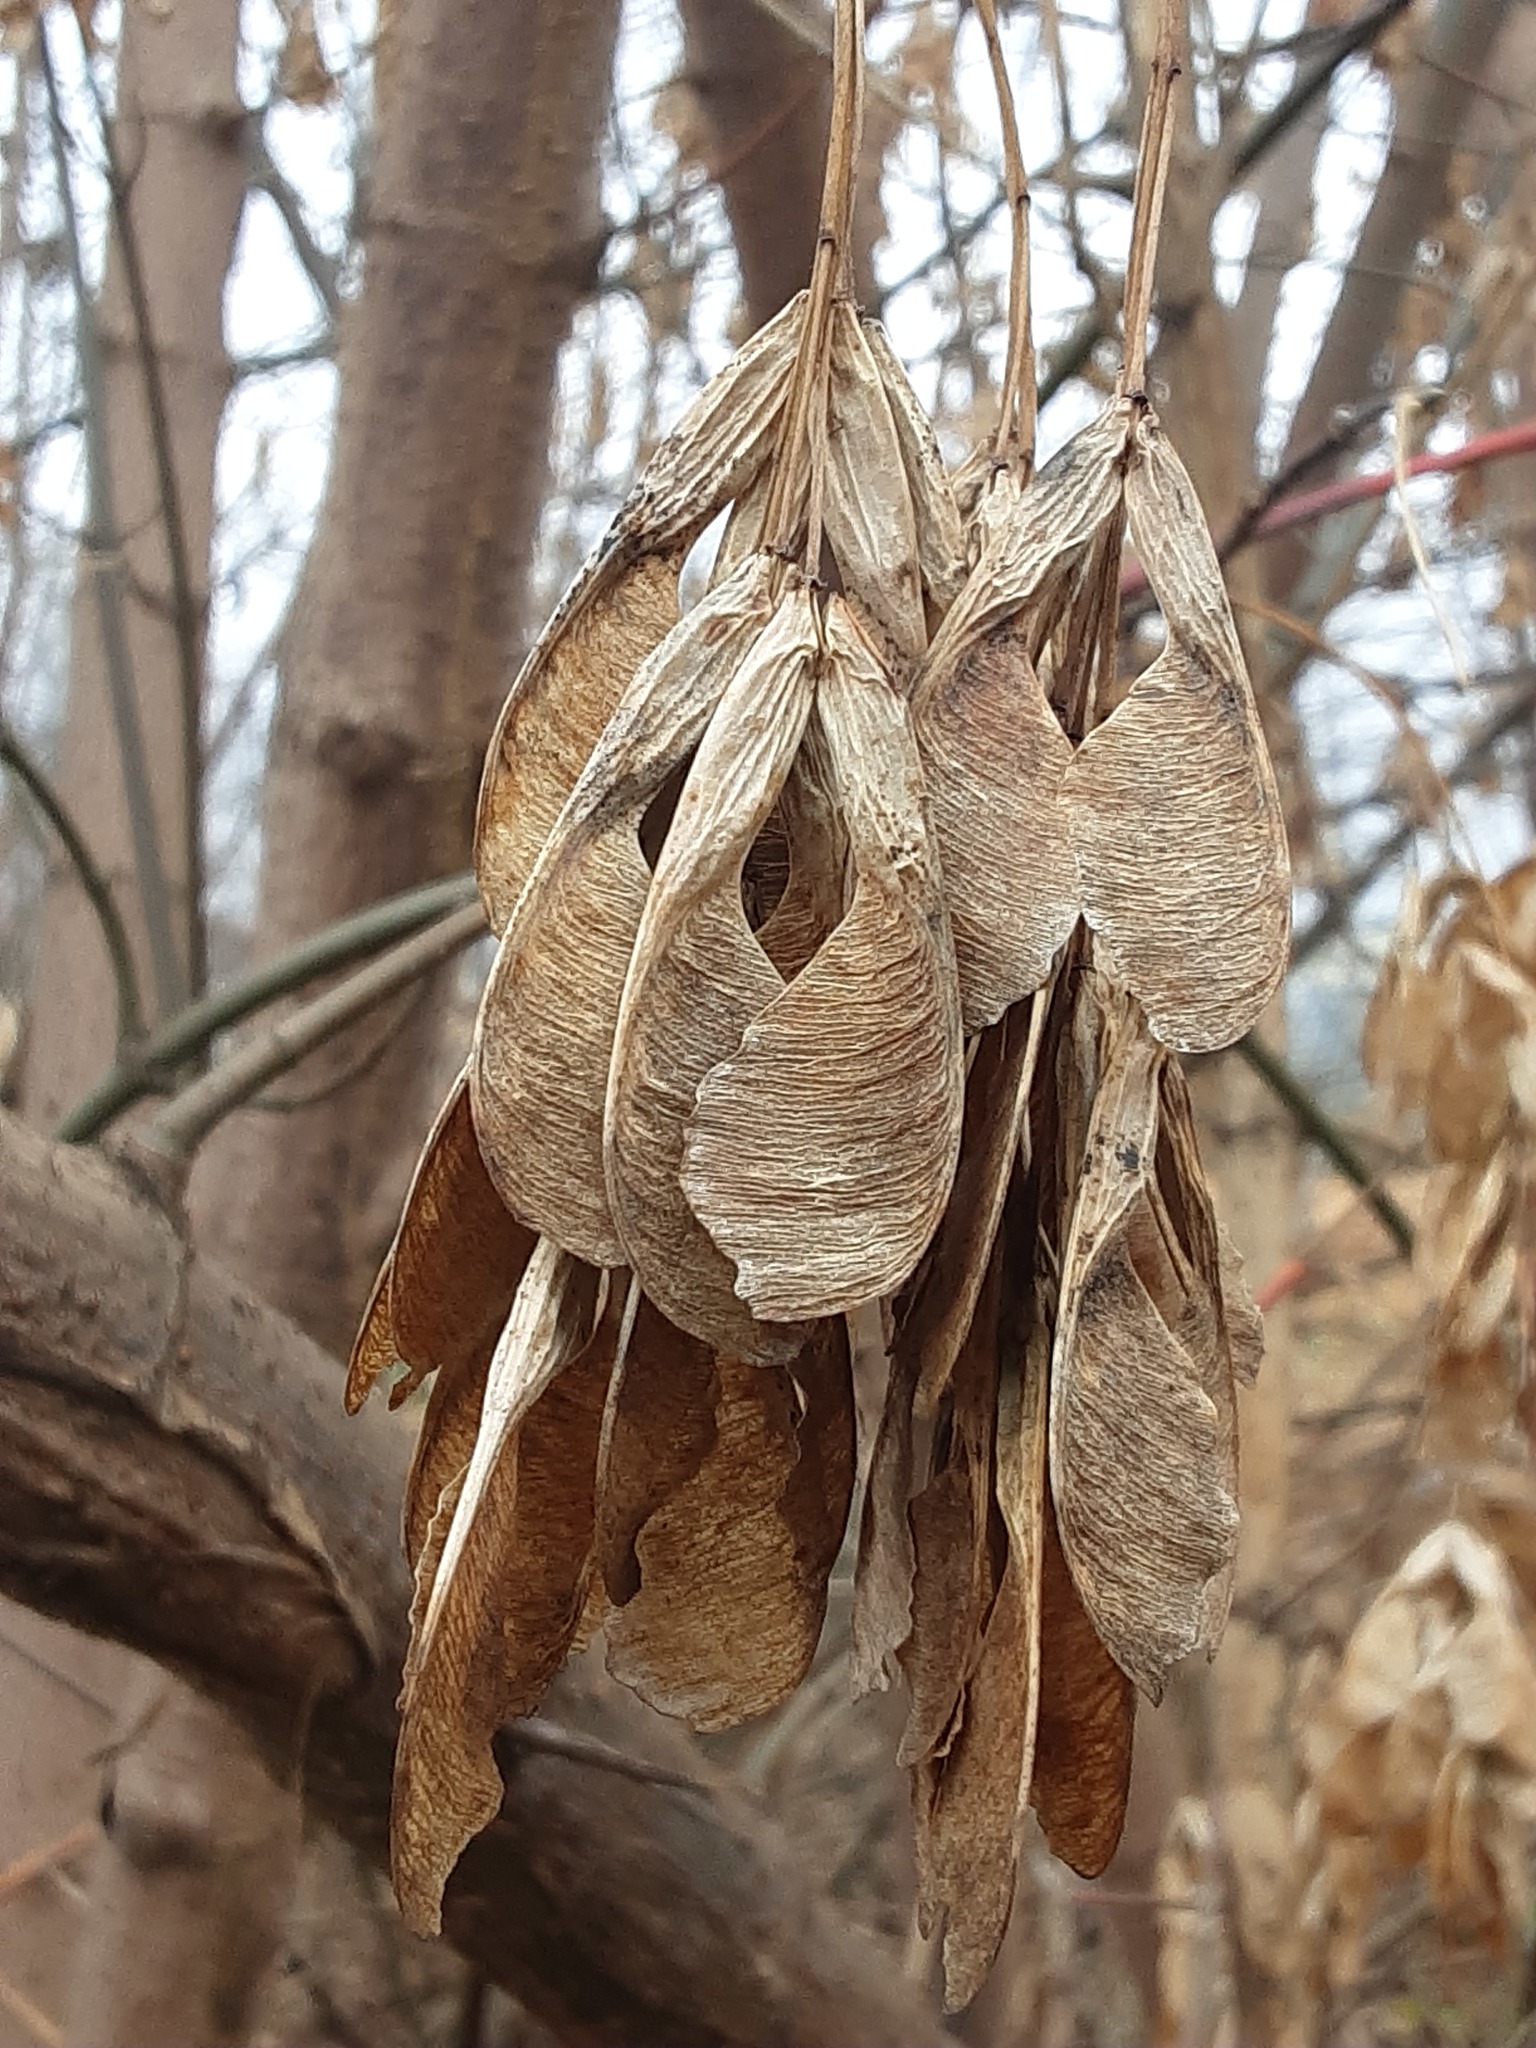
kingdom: Plantae
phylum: Tracheophyta
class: Magnoliopsida
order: Sapindales
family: Sapindaceae
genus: Acer
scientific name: Acer negundo
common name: Ashleaf maple
